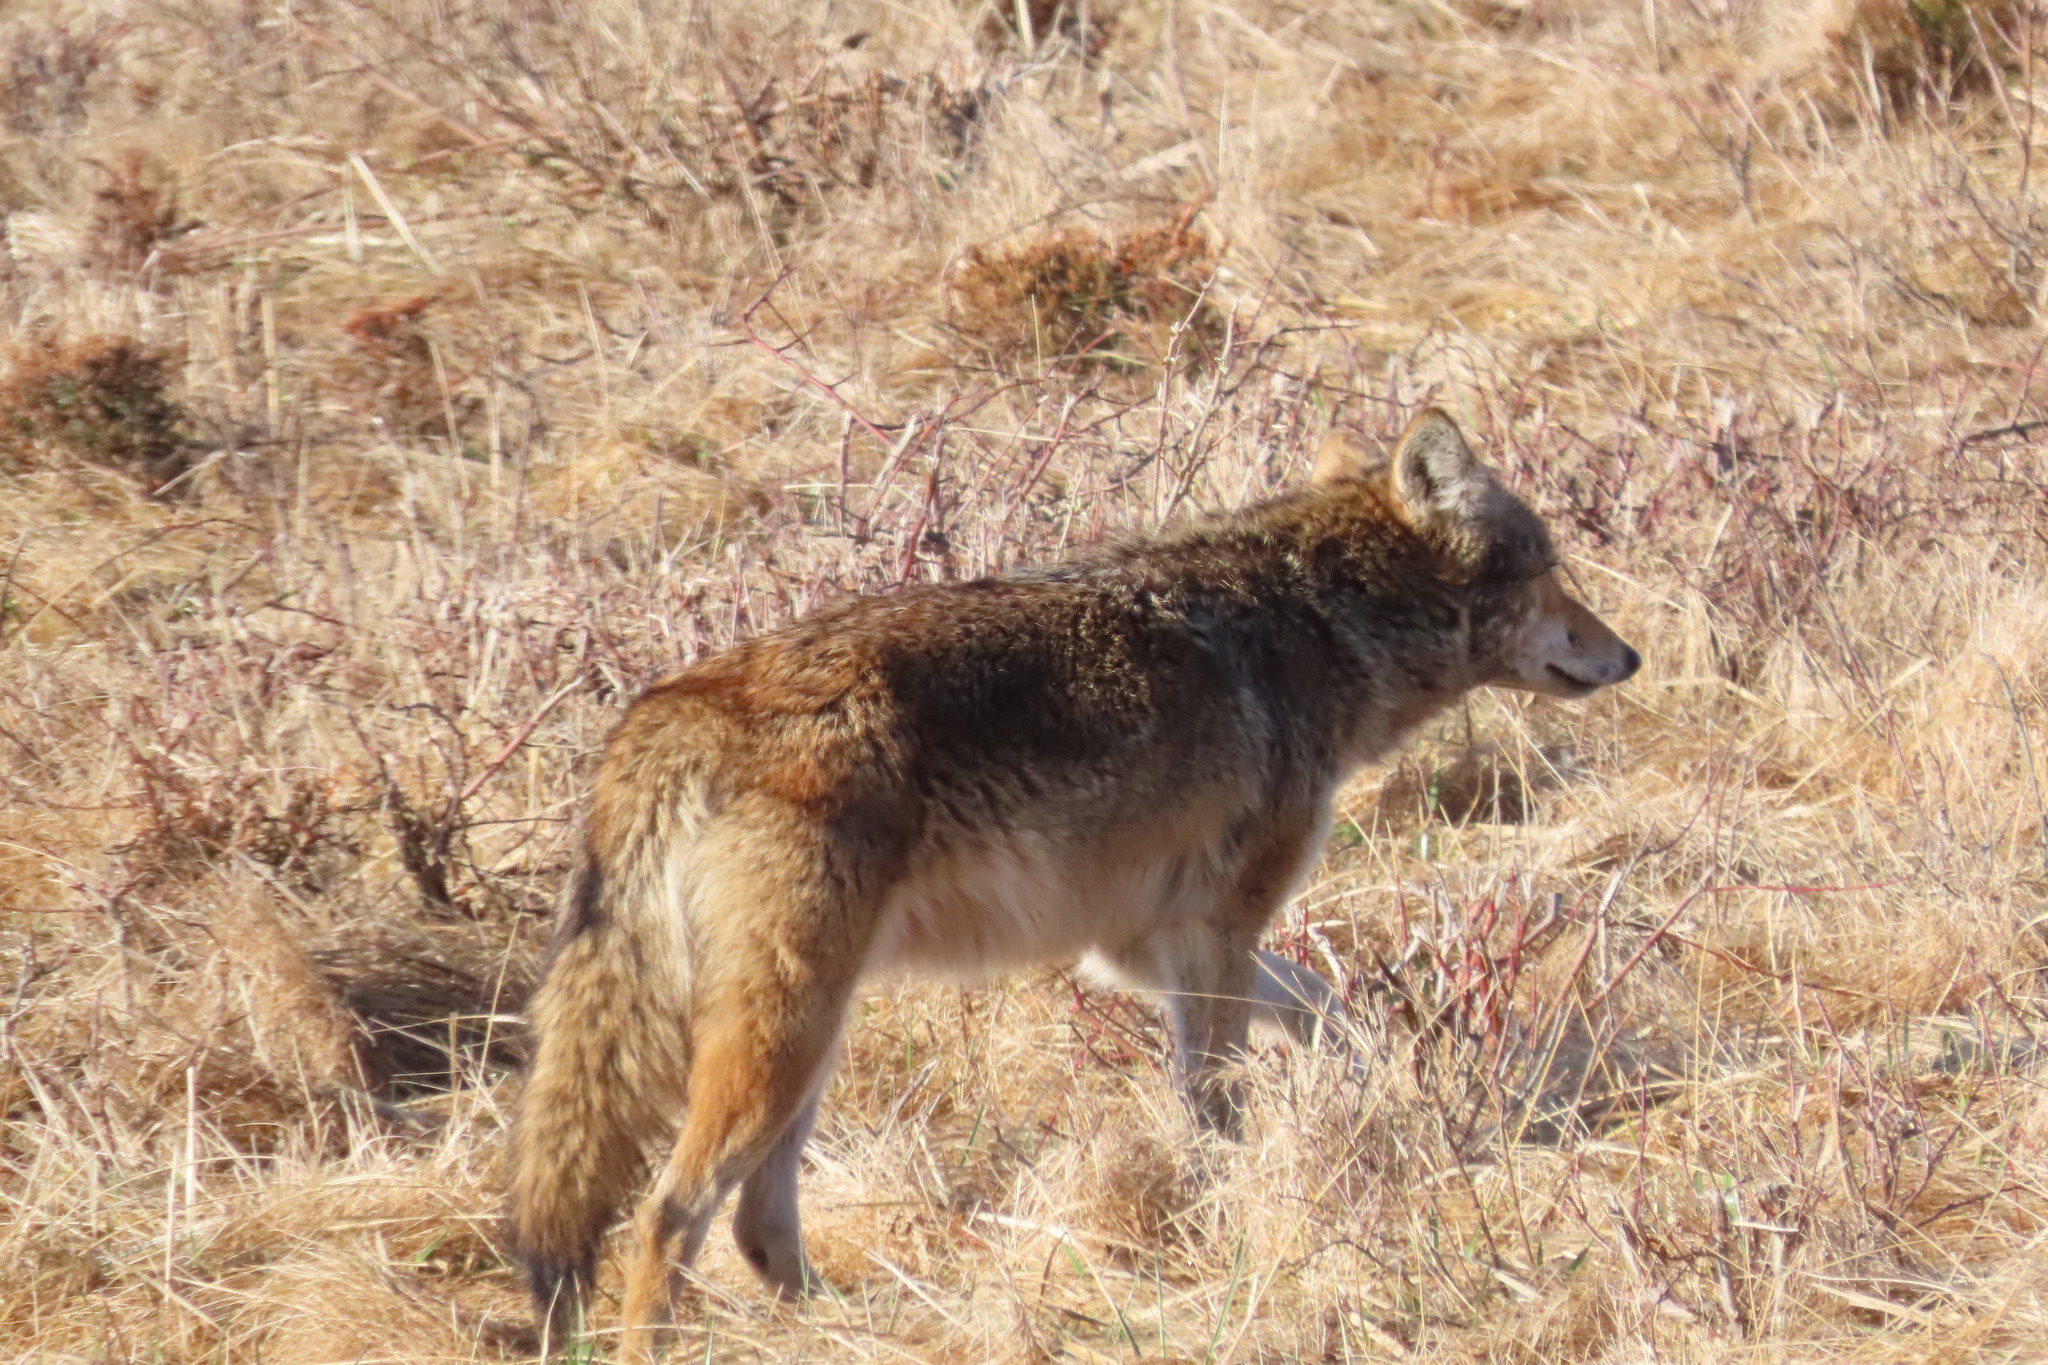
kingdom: Animalia
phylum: Chordata
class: Mammalia
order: Carnivora
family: Canidae
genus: Canis
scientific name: Canis latrans
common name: Coyote
